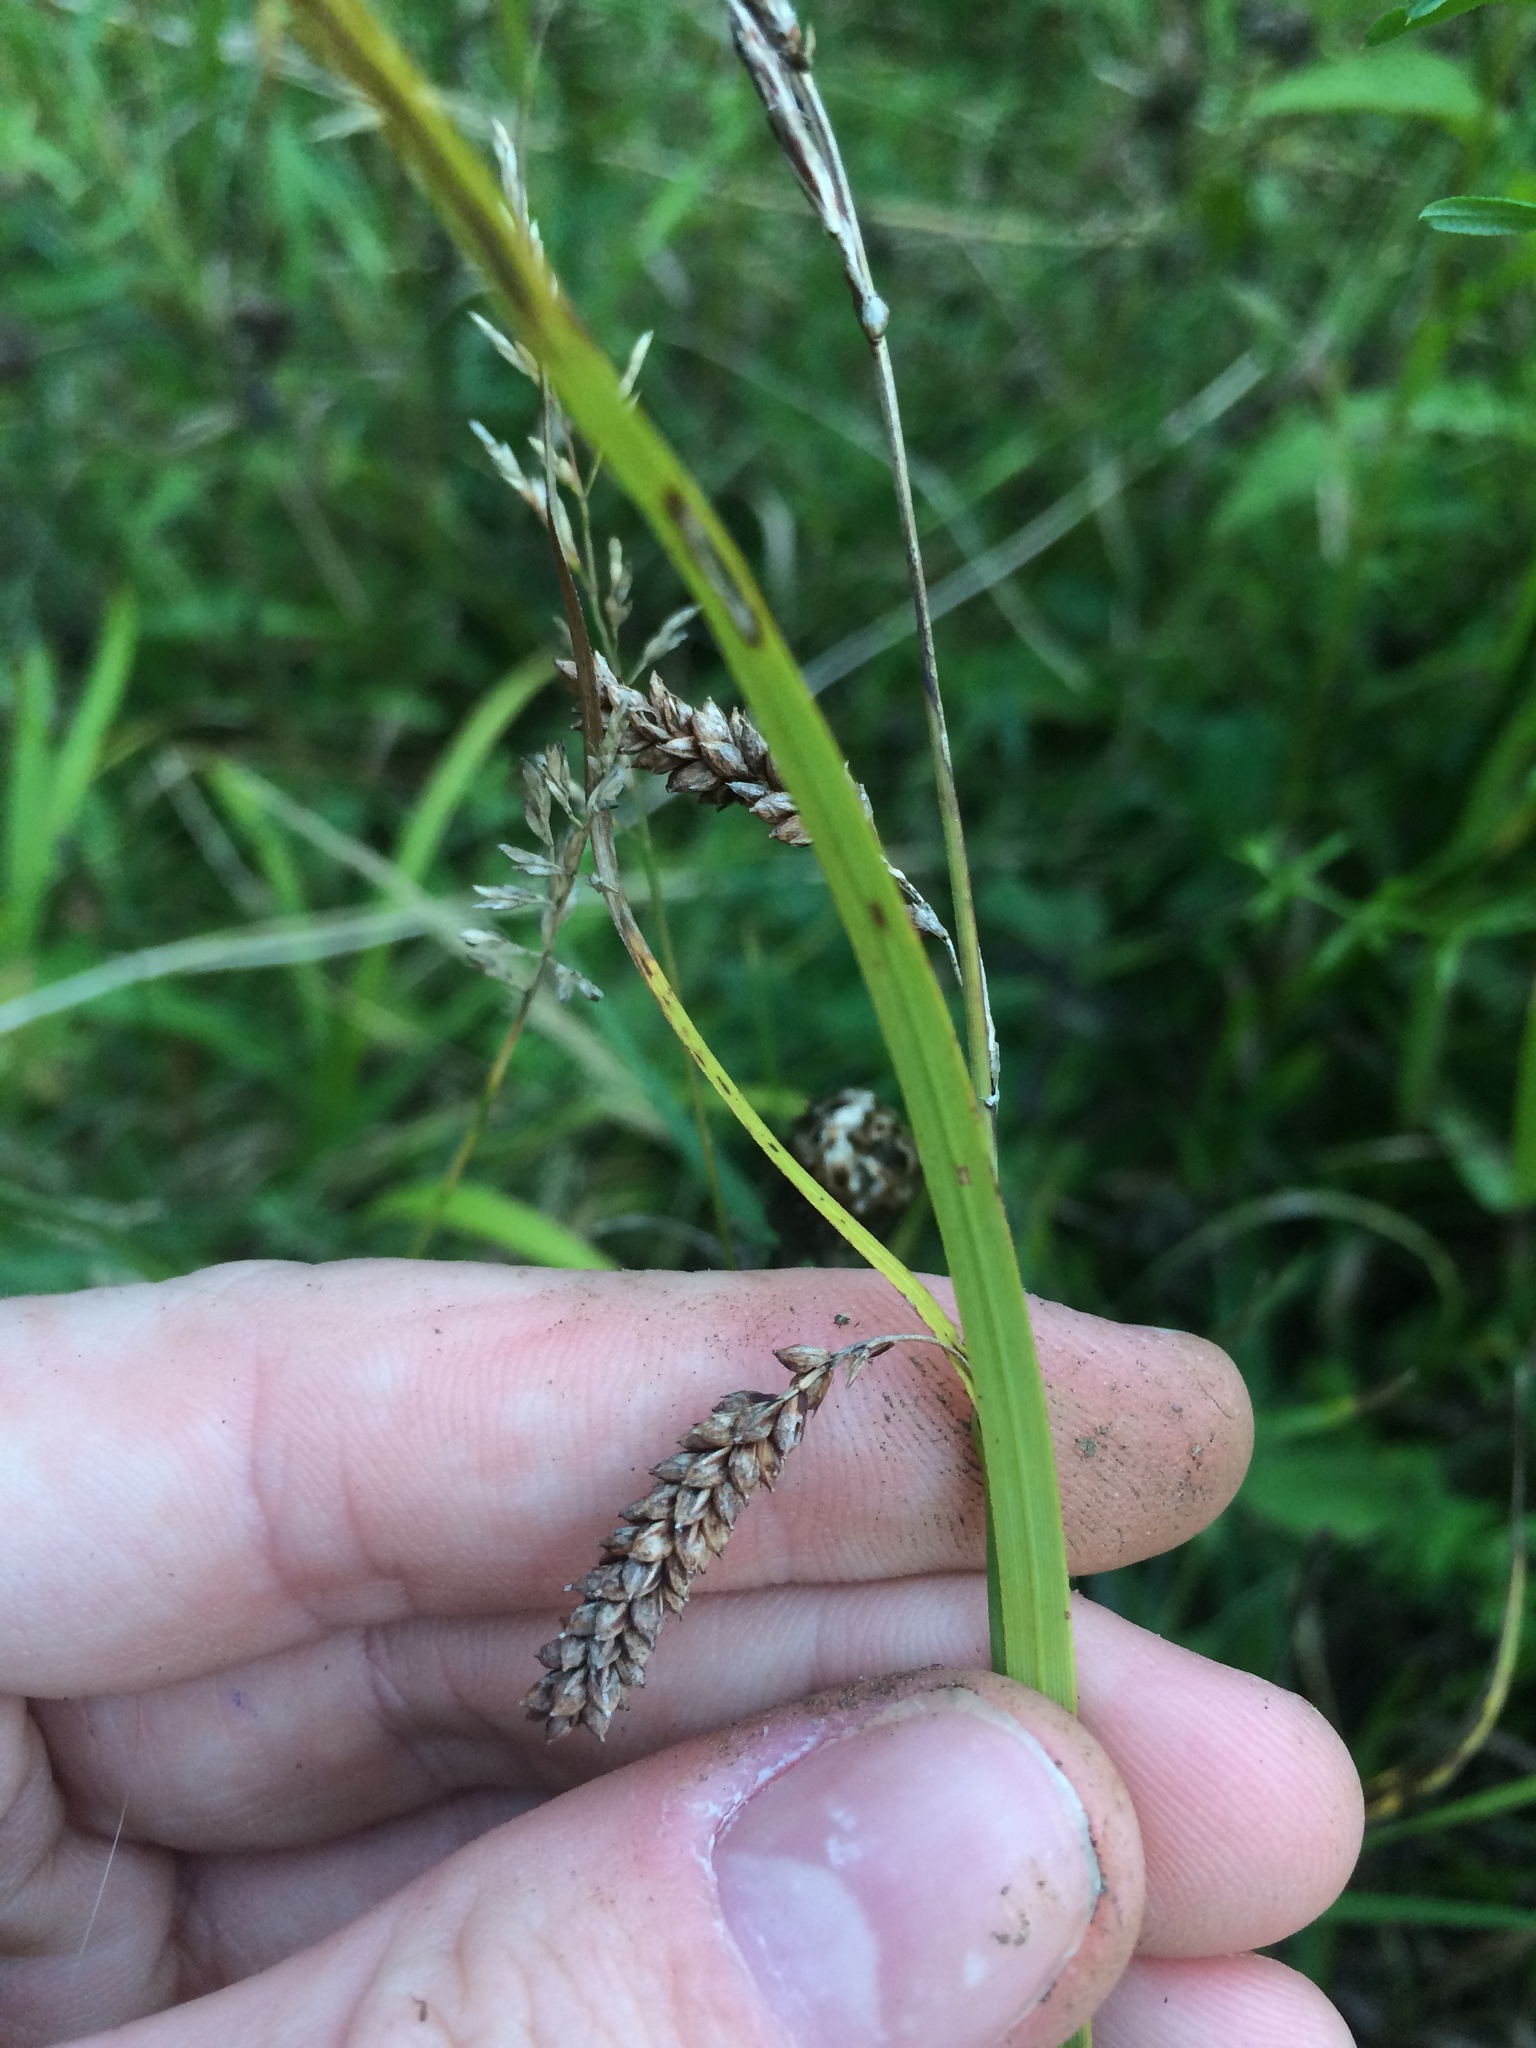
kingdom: Plantae
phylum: Tracheophyta
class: Liliopsida
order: Poales
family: Cyperaceae
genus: Carex
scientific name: Carex flacca
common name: Glaucous sedge
